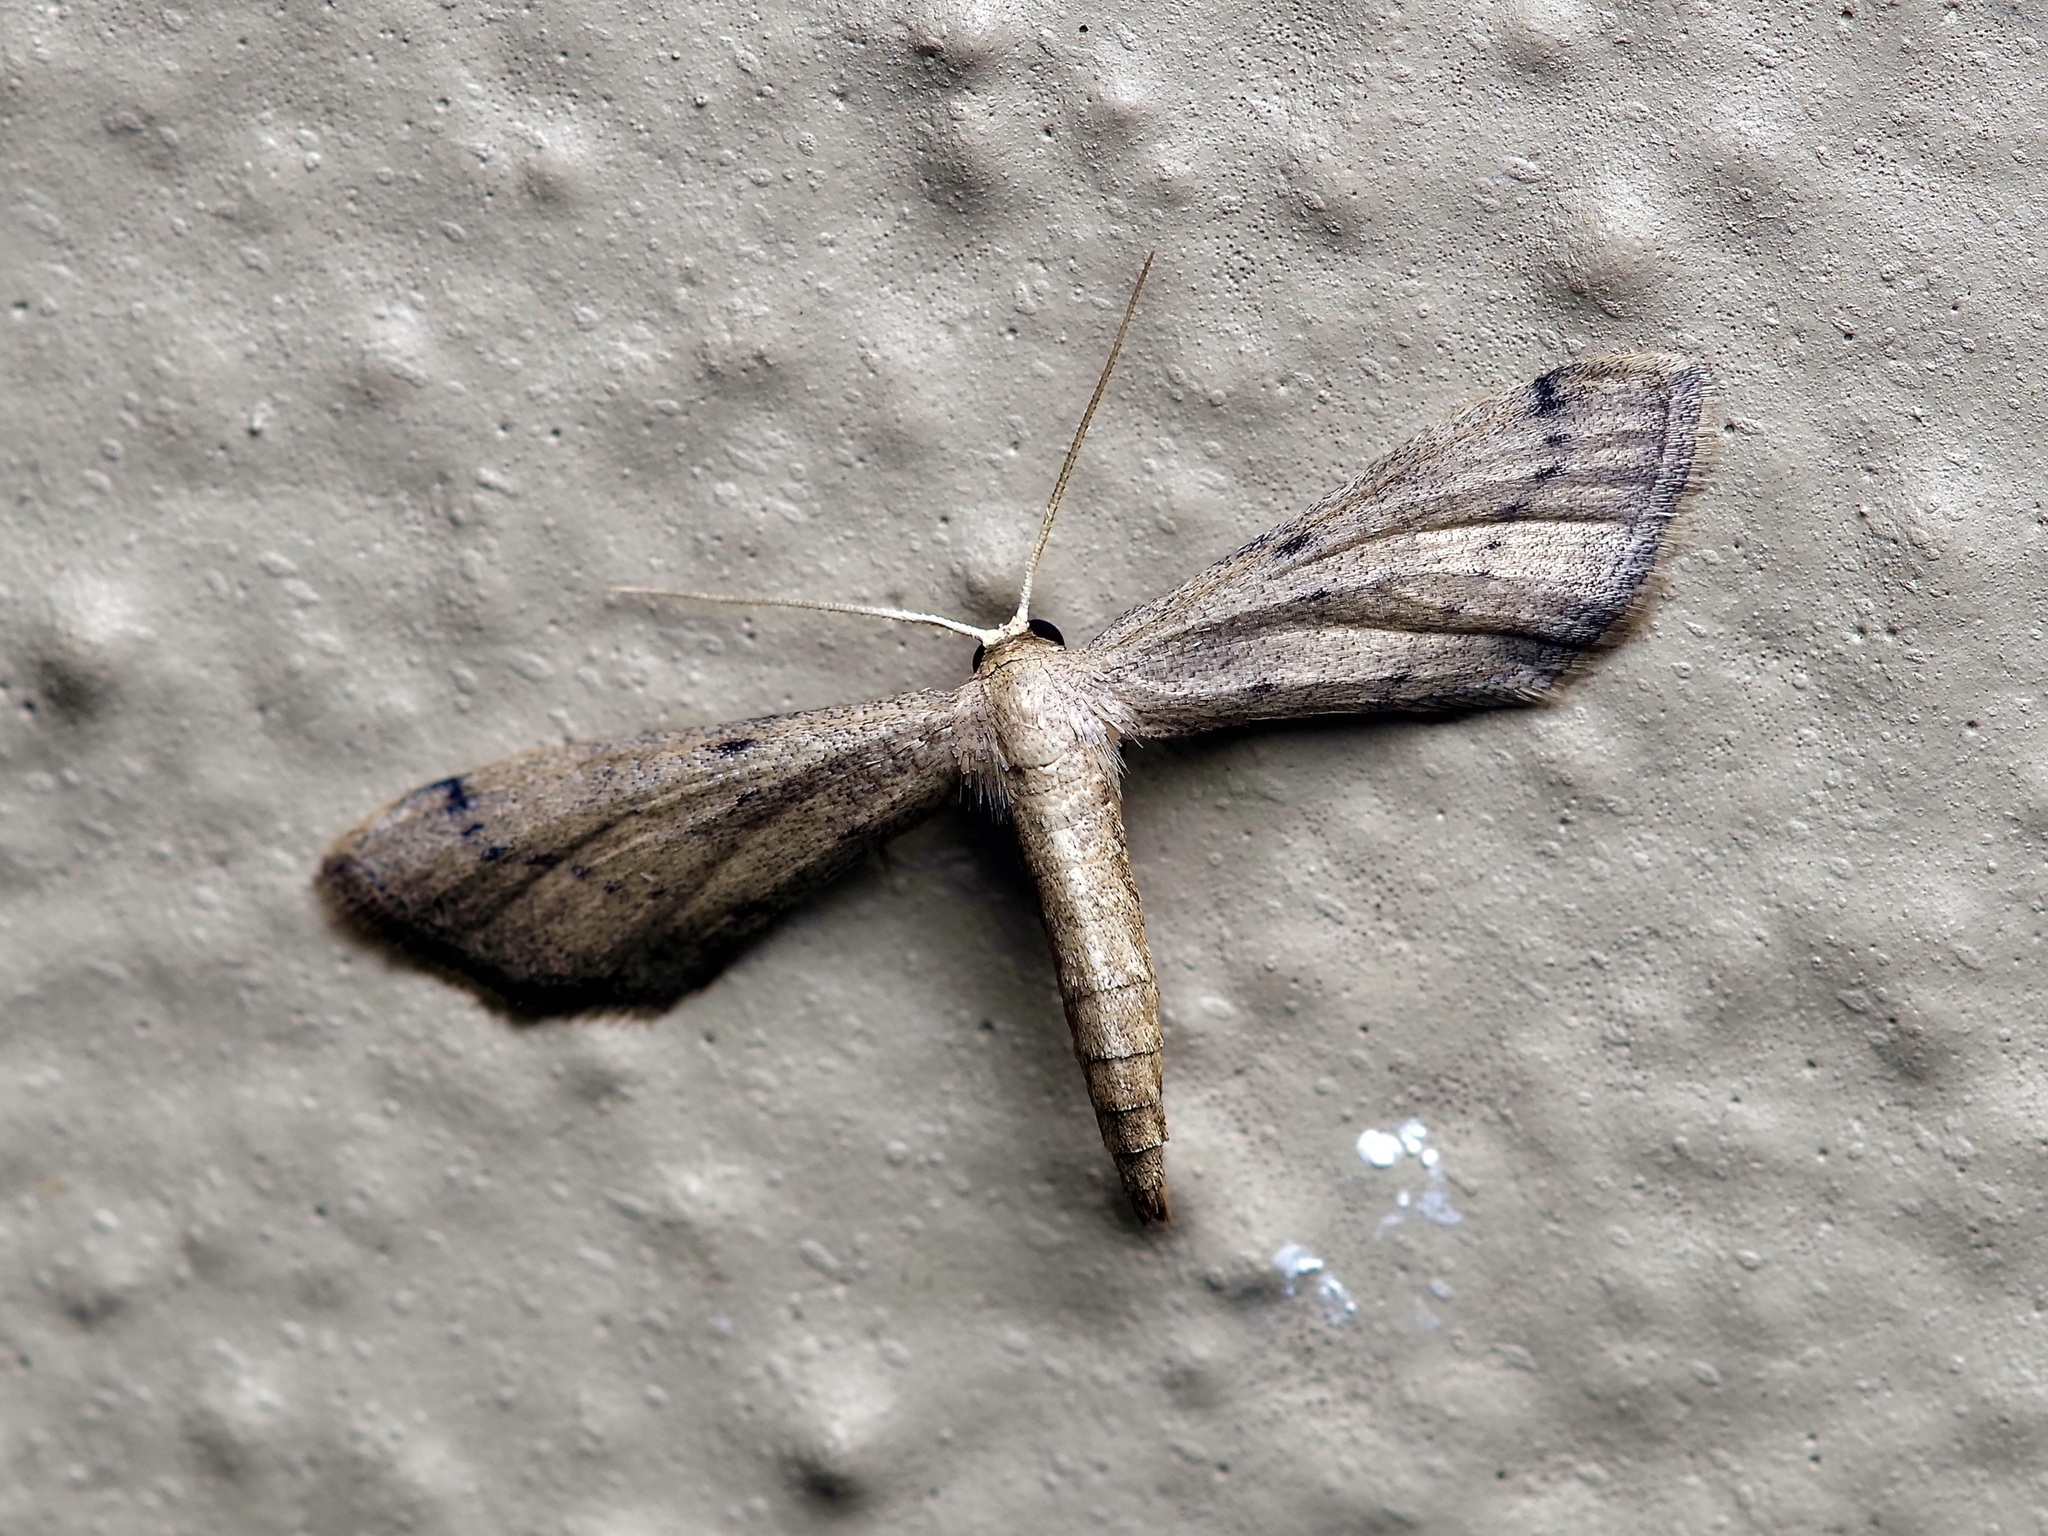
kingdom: Animalia
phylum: Arthropoda
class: Insecta
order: Lepidoptera
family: Geometridae
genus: Euacidalia
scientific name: Euacidalia brownsvillea
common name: Cankerworm
